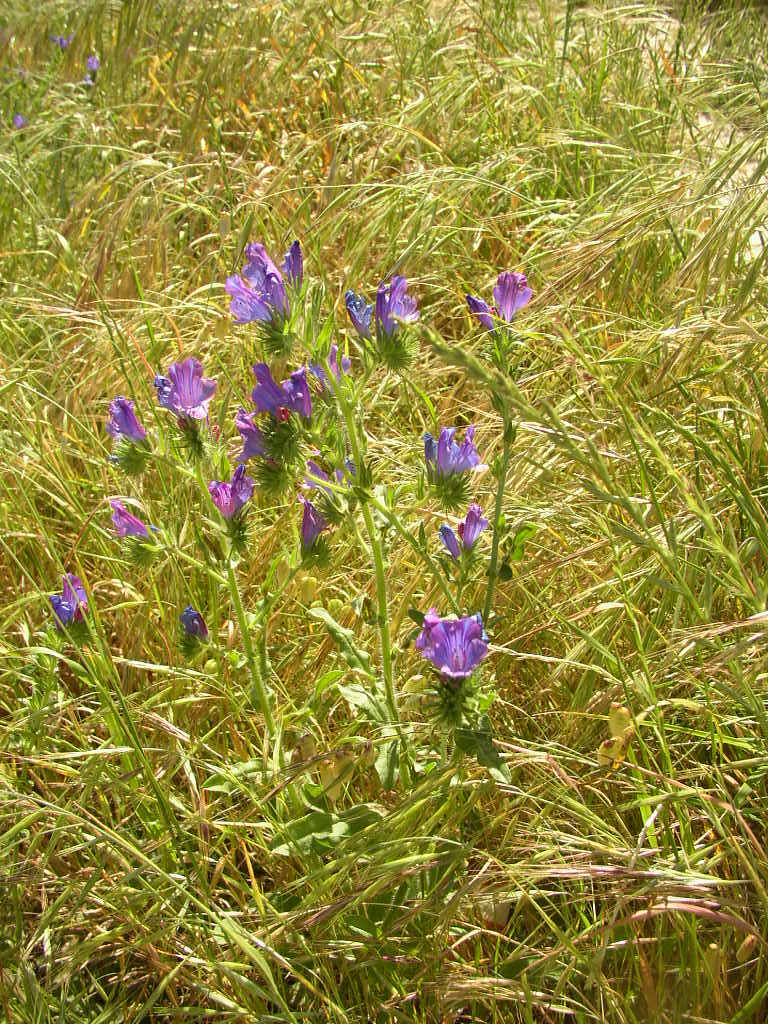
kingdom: Plantae
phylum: Tracheophyta
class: Magnoliopsida
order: Boraginales
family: Boraginaceae
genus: Echium
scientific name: Echium plantagineum
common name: Purple viper's-bugloss
